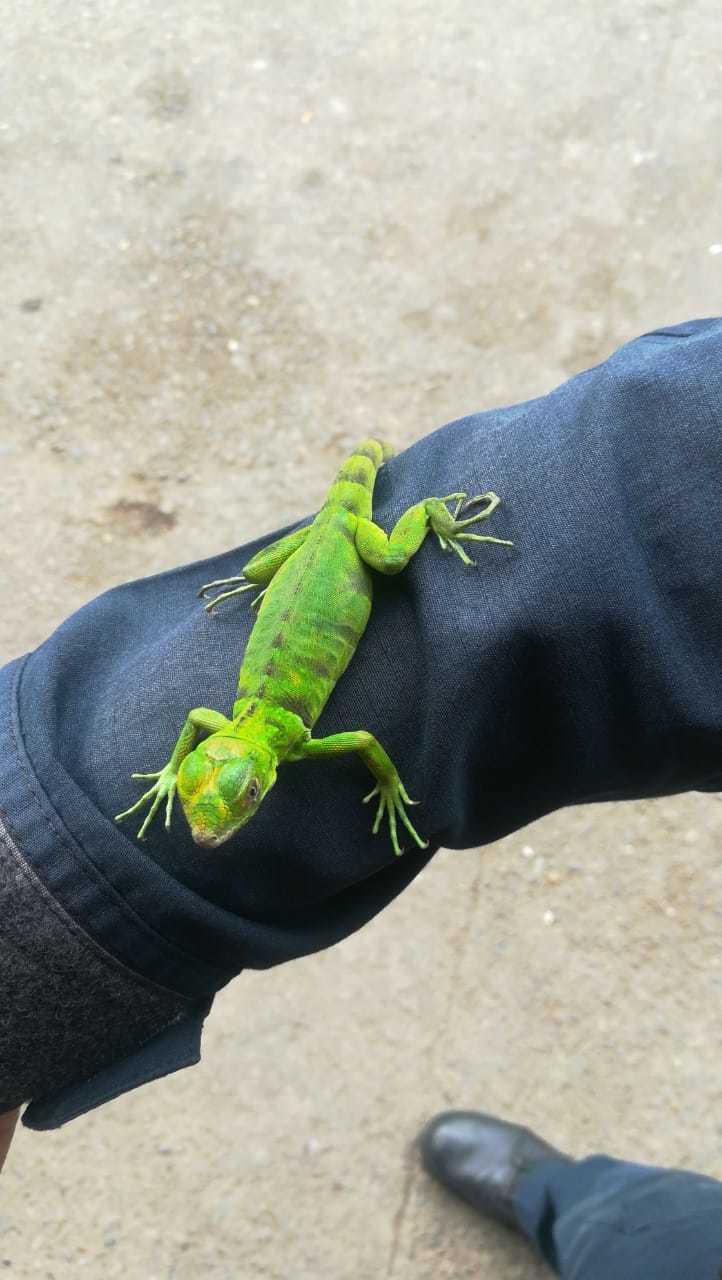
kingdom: Animalia
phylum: Chordata
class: Squamata
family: Iguanidae
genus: Iguana
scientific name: Iguana iguana
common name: Green iguana
